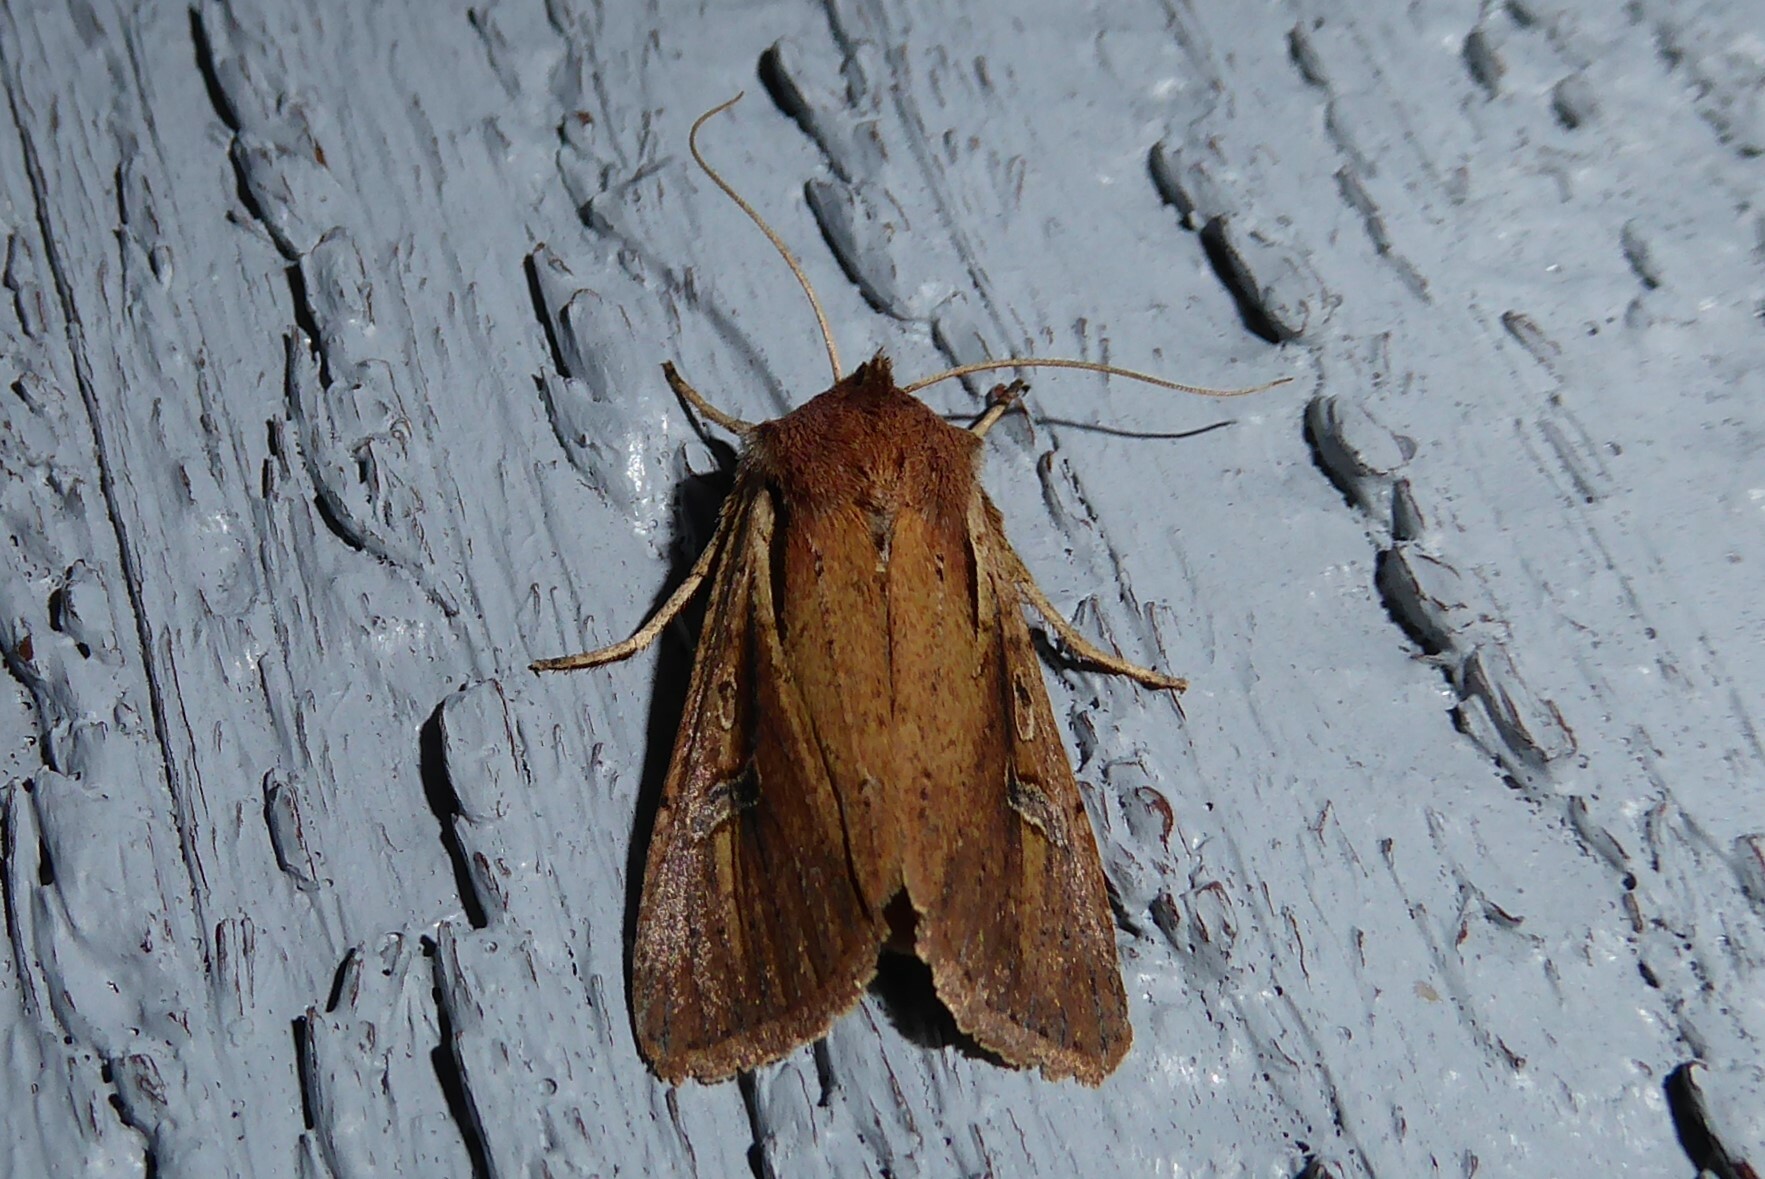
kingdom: Animalia
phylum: Arthropoda
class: Insecta
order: Lepidoptera
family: Noctuidae
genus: Ichneutica
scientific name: Ichneutica atristriga
